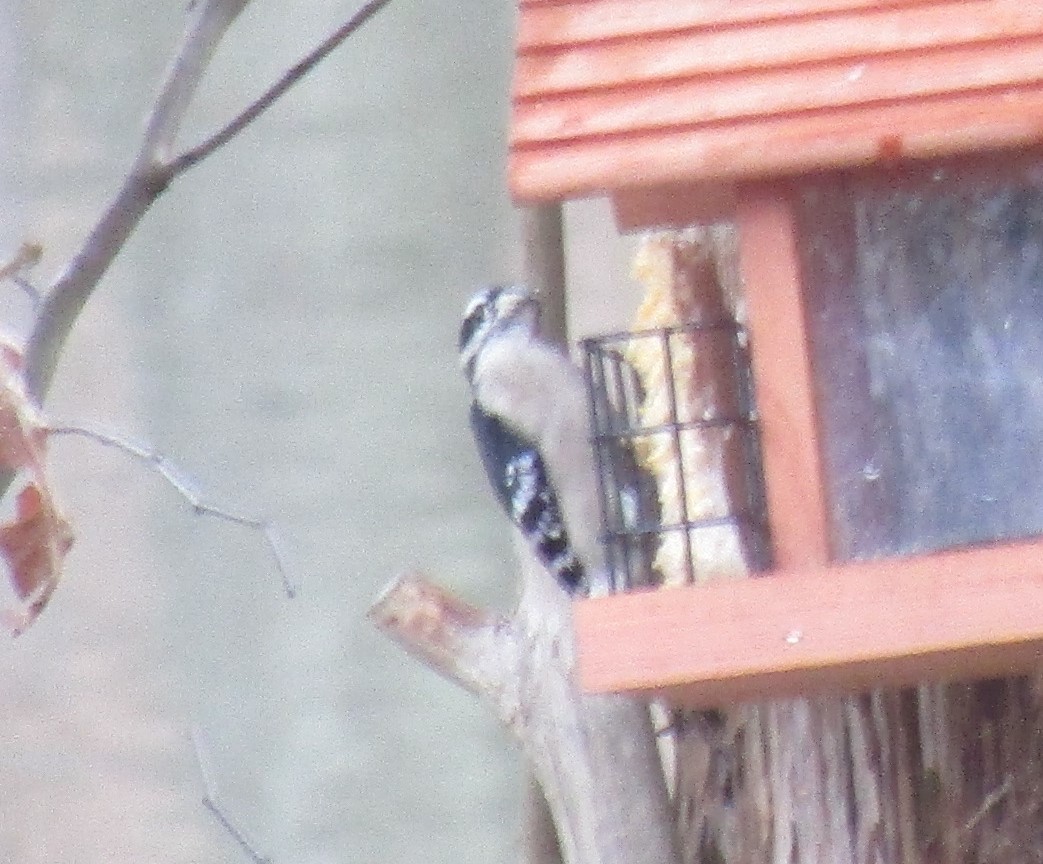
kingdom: Animalia
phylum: Chordata
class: Aves
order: Piciformes
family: Picidae
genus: Dryobates
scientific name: Dryobates pubescens
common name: Downy woodpecker
